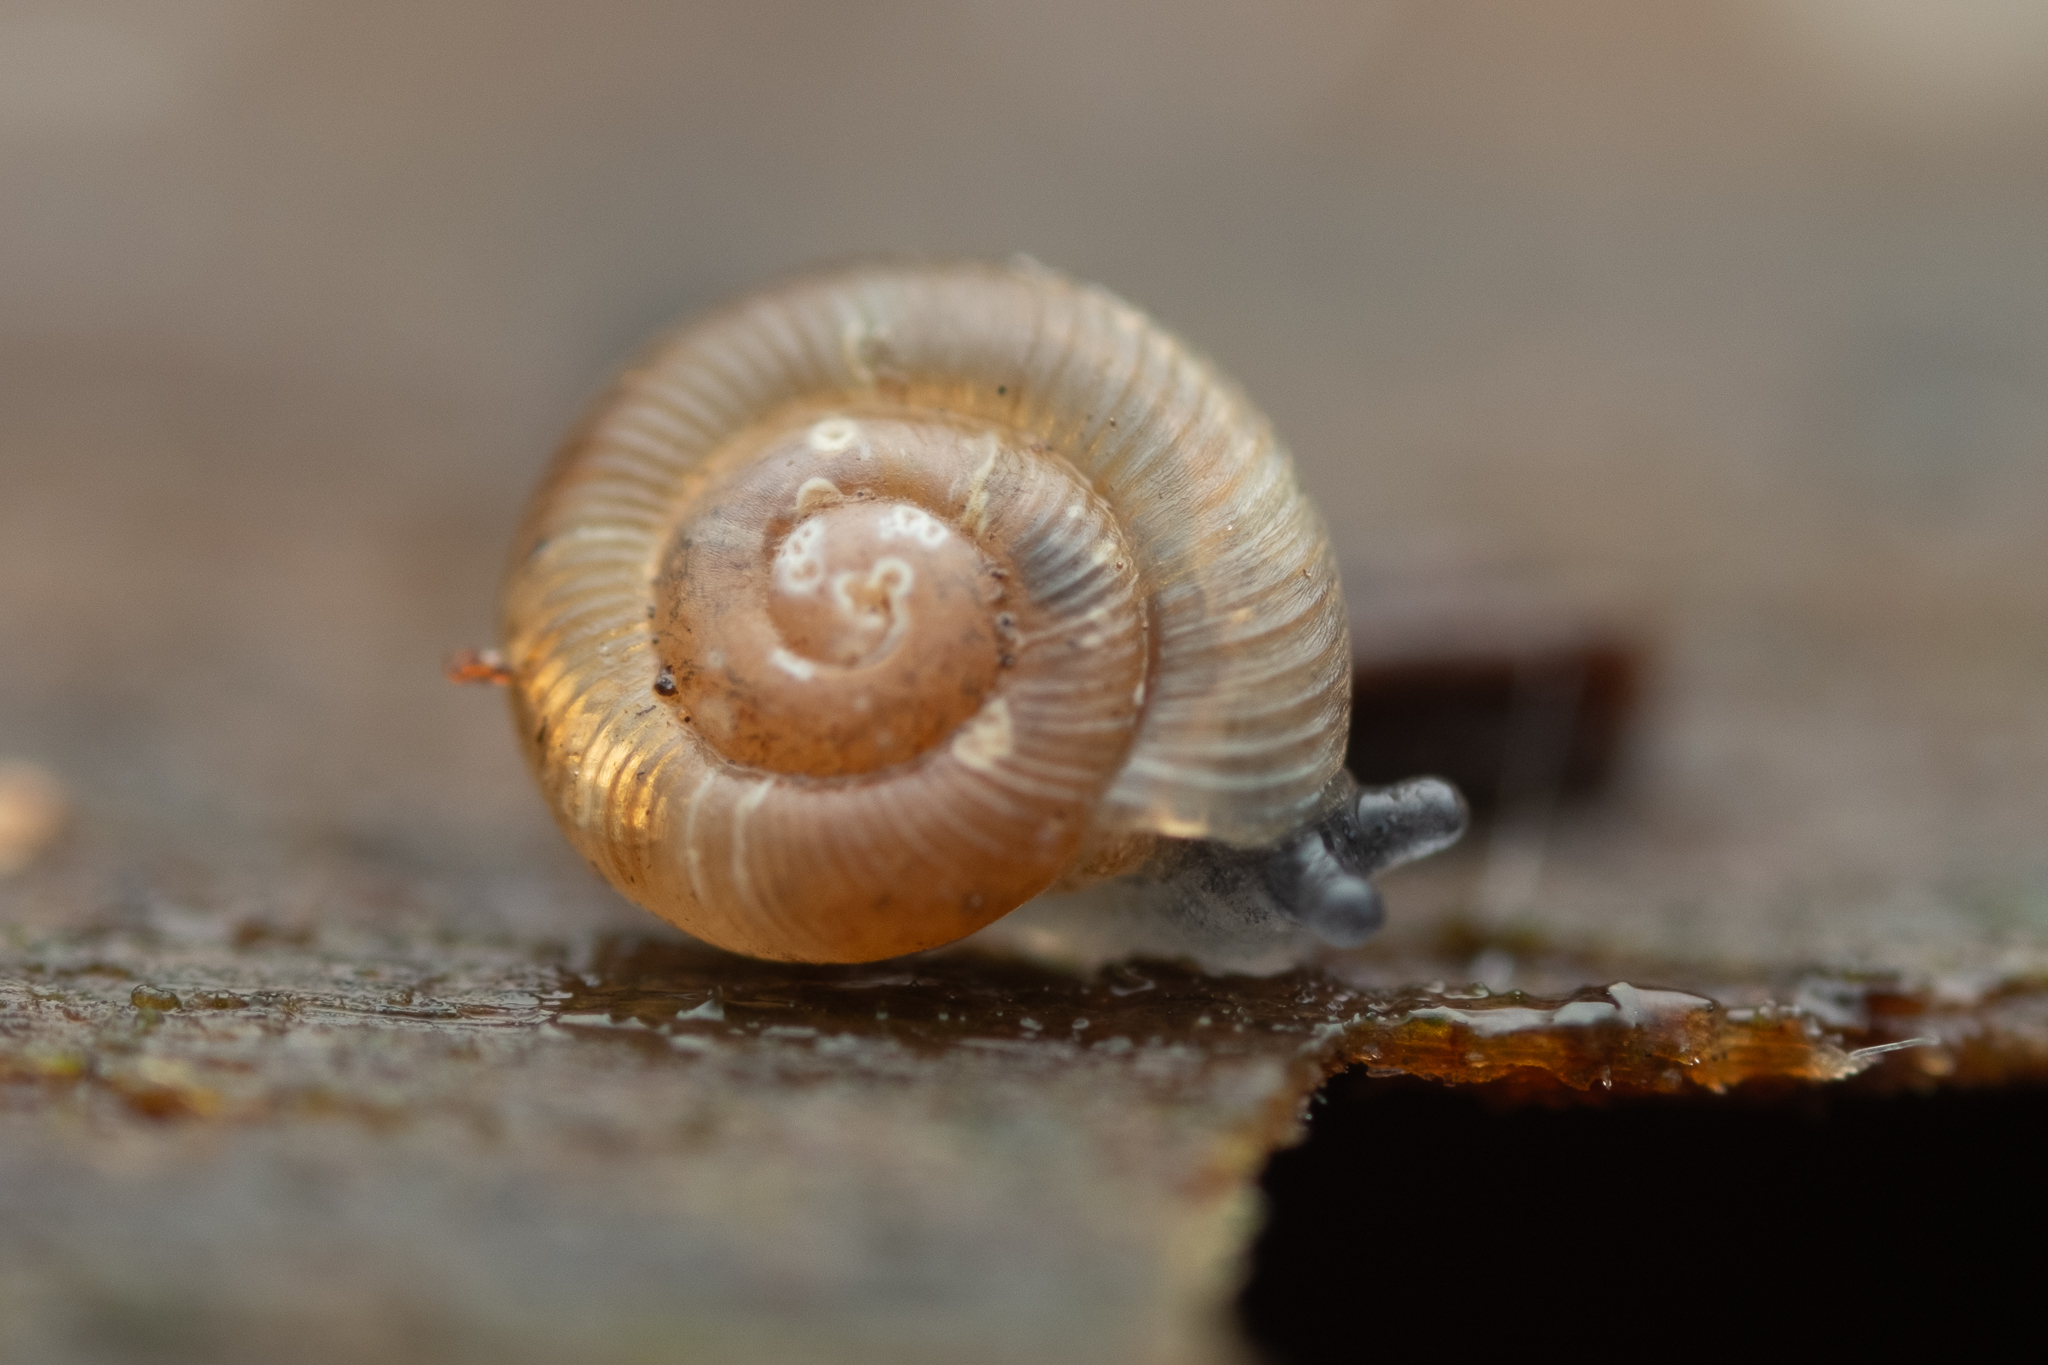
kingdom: Animalia
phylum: Mollusca
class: Gastropoda
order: Stylommatophora
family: Discidae
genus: Discus
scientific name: Discus rotundatus
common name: Rounded snail
